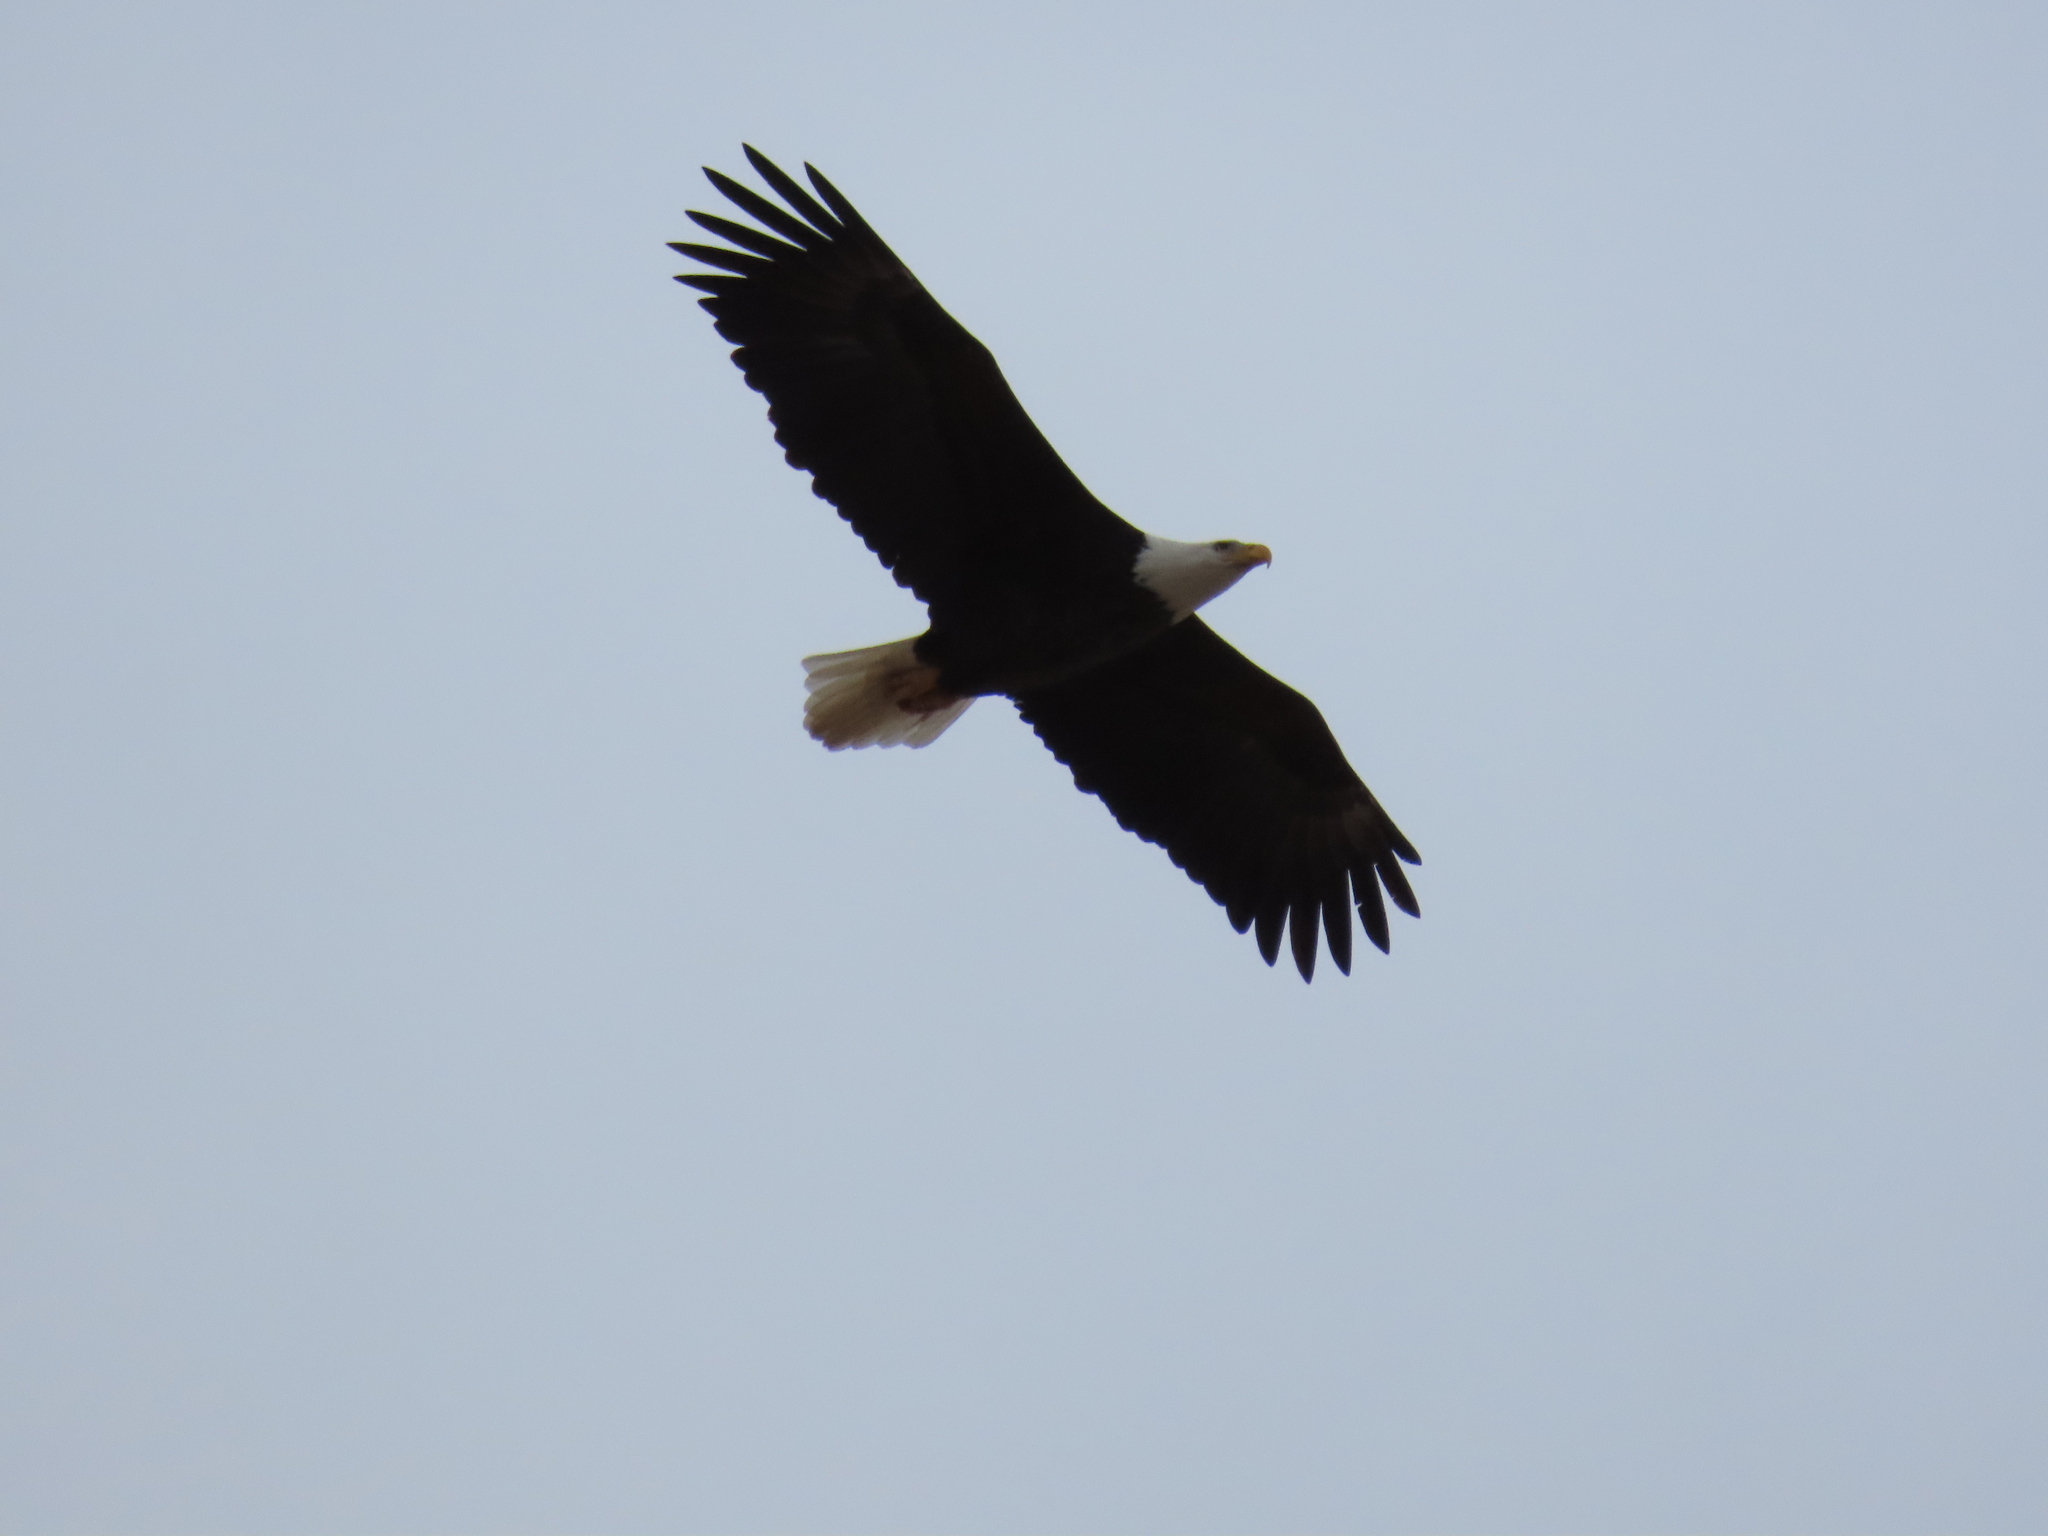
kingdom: Animalia
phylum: Chordata
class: Aves
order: Accipitriformes
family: Accipitridae
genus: Haliaeetus
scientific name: Haliaeetus leucocephalus
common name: Bald eagle
